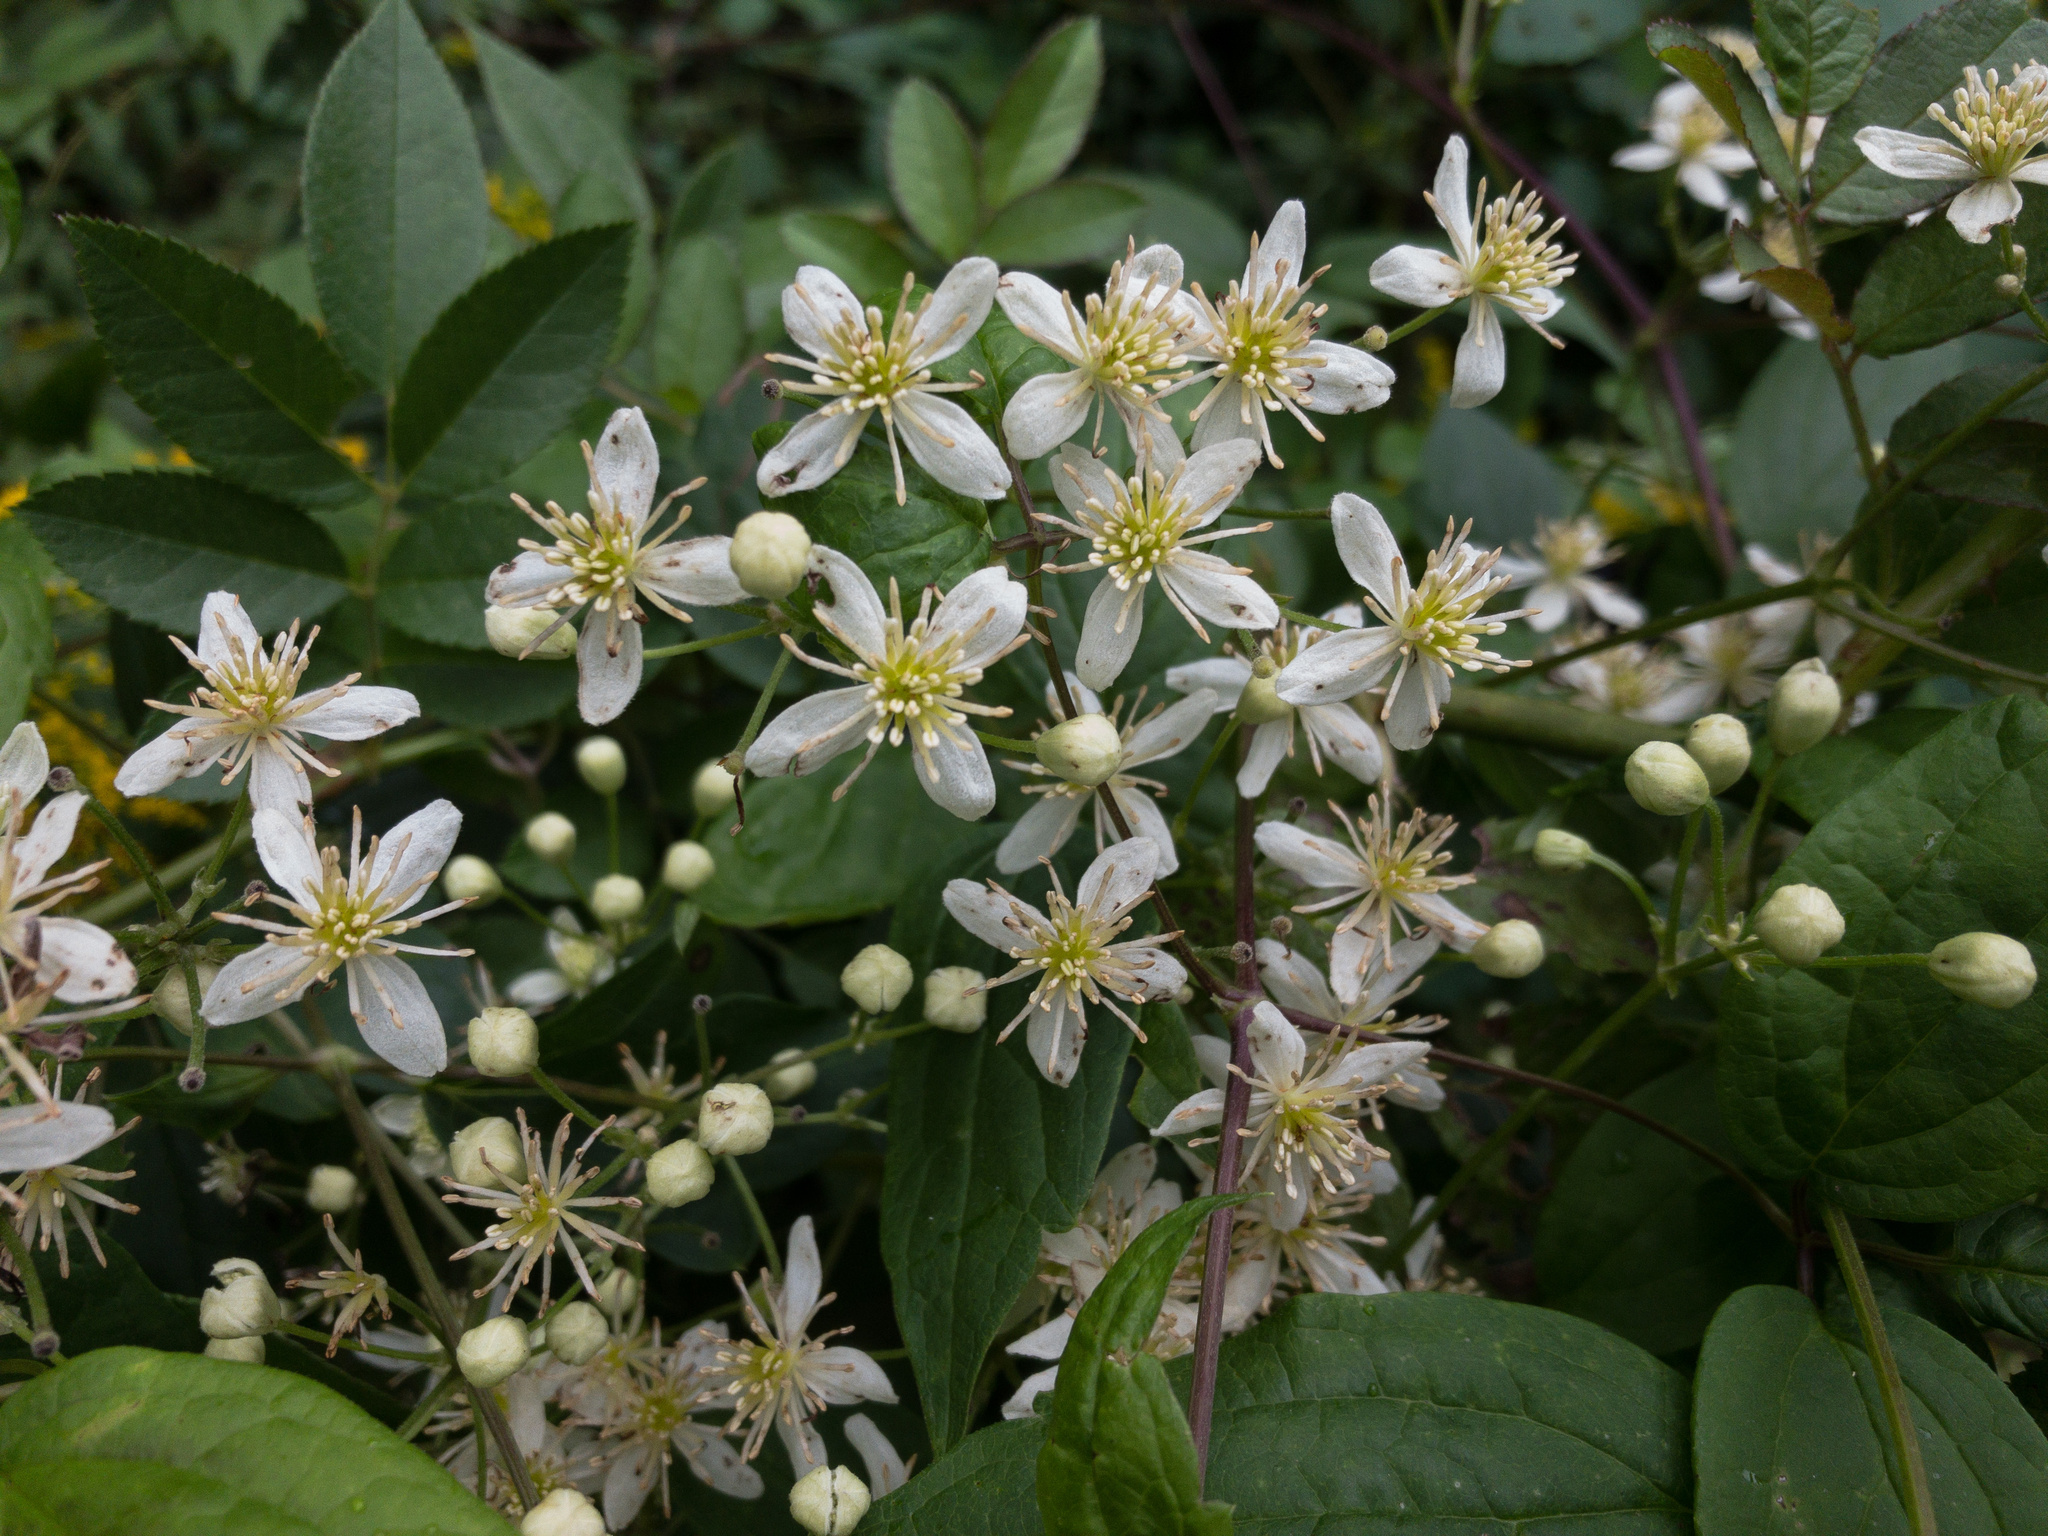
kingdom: Plantae
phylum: Tracheophyta
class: Magnoliopsida
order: Ranunculales
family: Ranunculaceae
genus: Clematis
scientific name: Clematis virginiana
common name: Virgin's-bower
